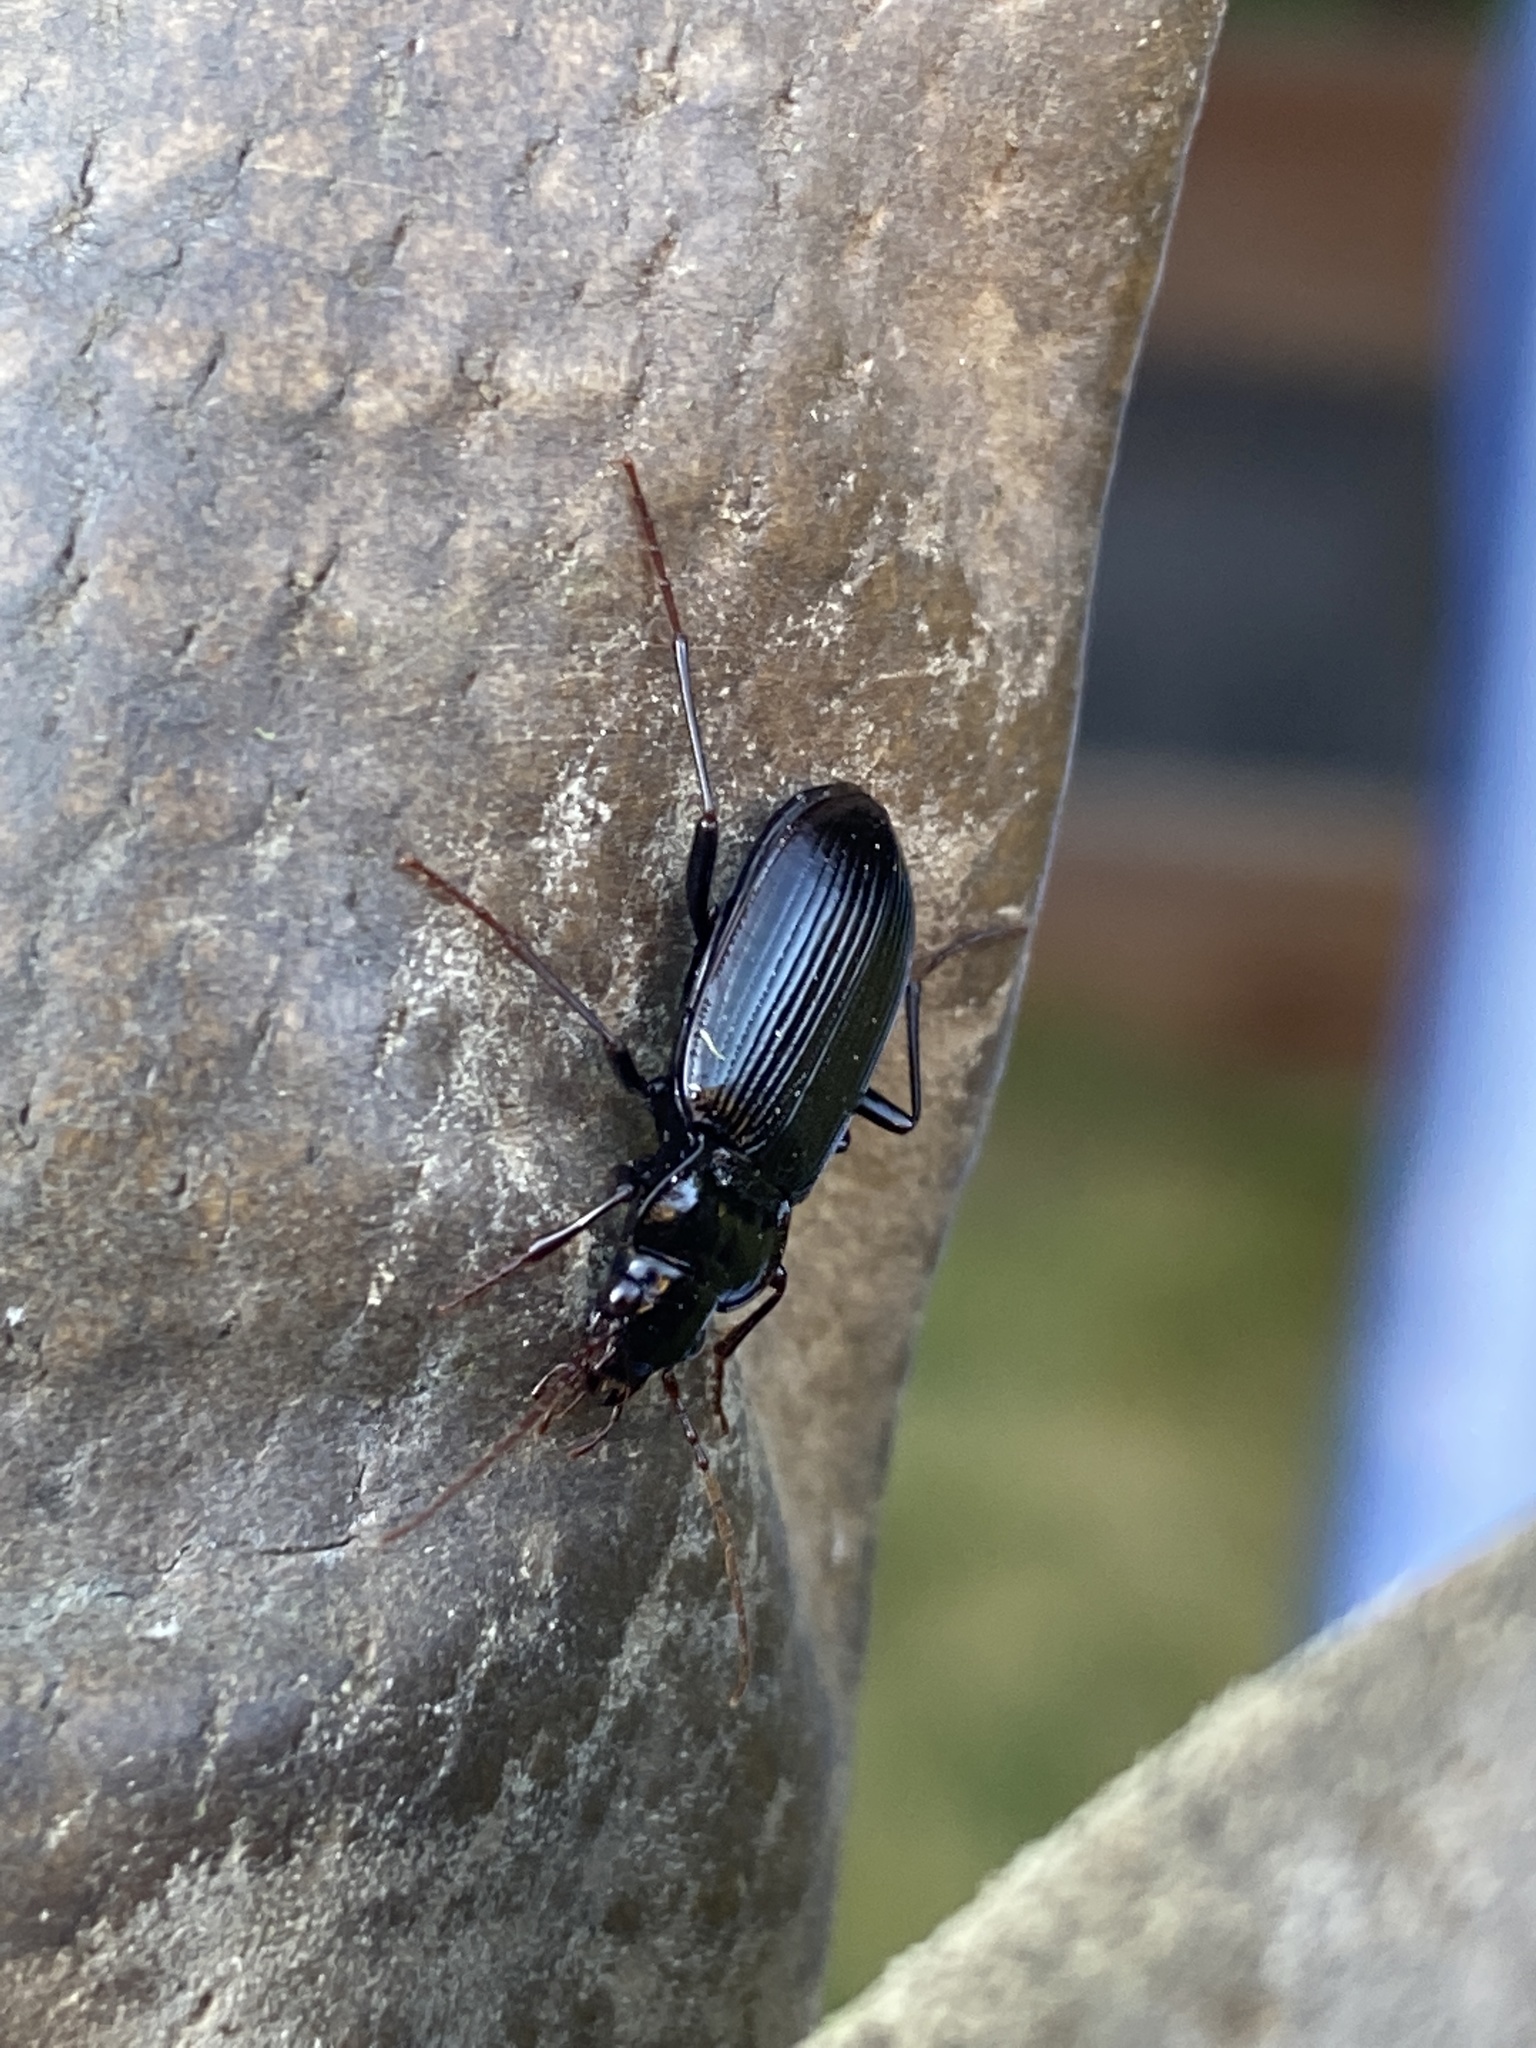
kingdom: Animalia
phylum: Arthropoda
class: Insecta
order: Coleoptera
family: Carabidae
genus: Nebria
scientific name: Nebria brevicollis
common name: Short-necked gazelle beetle
